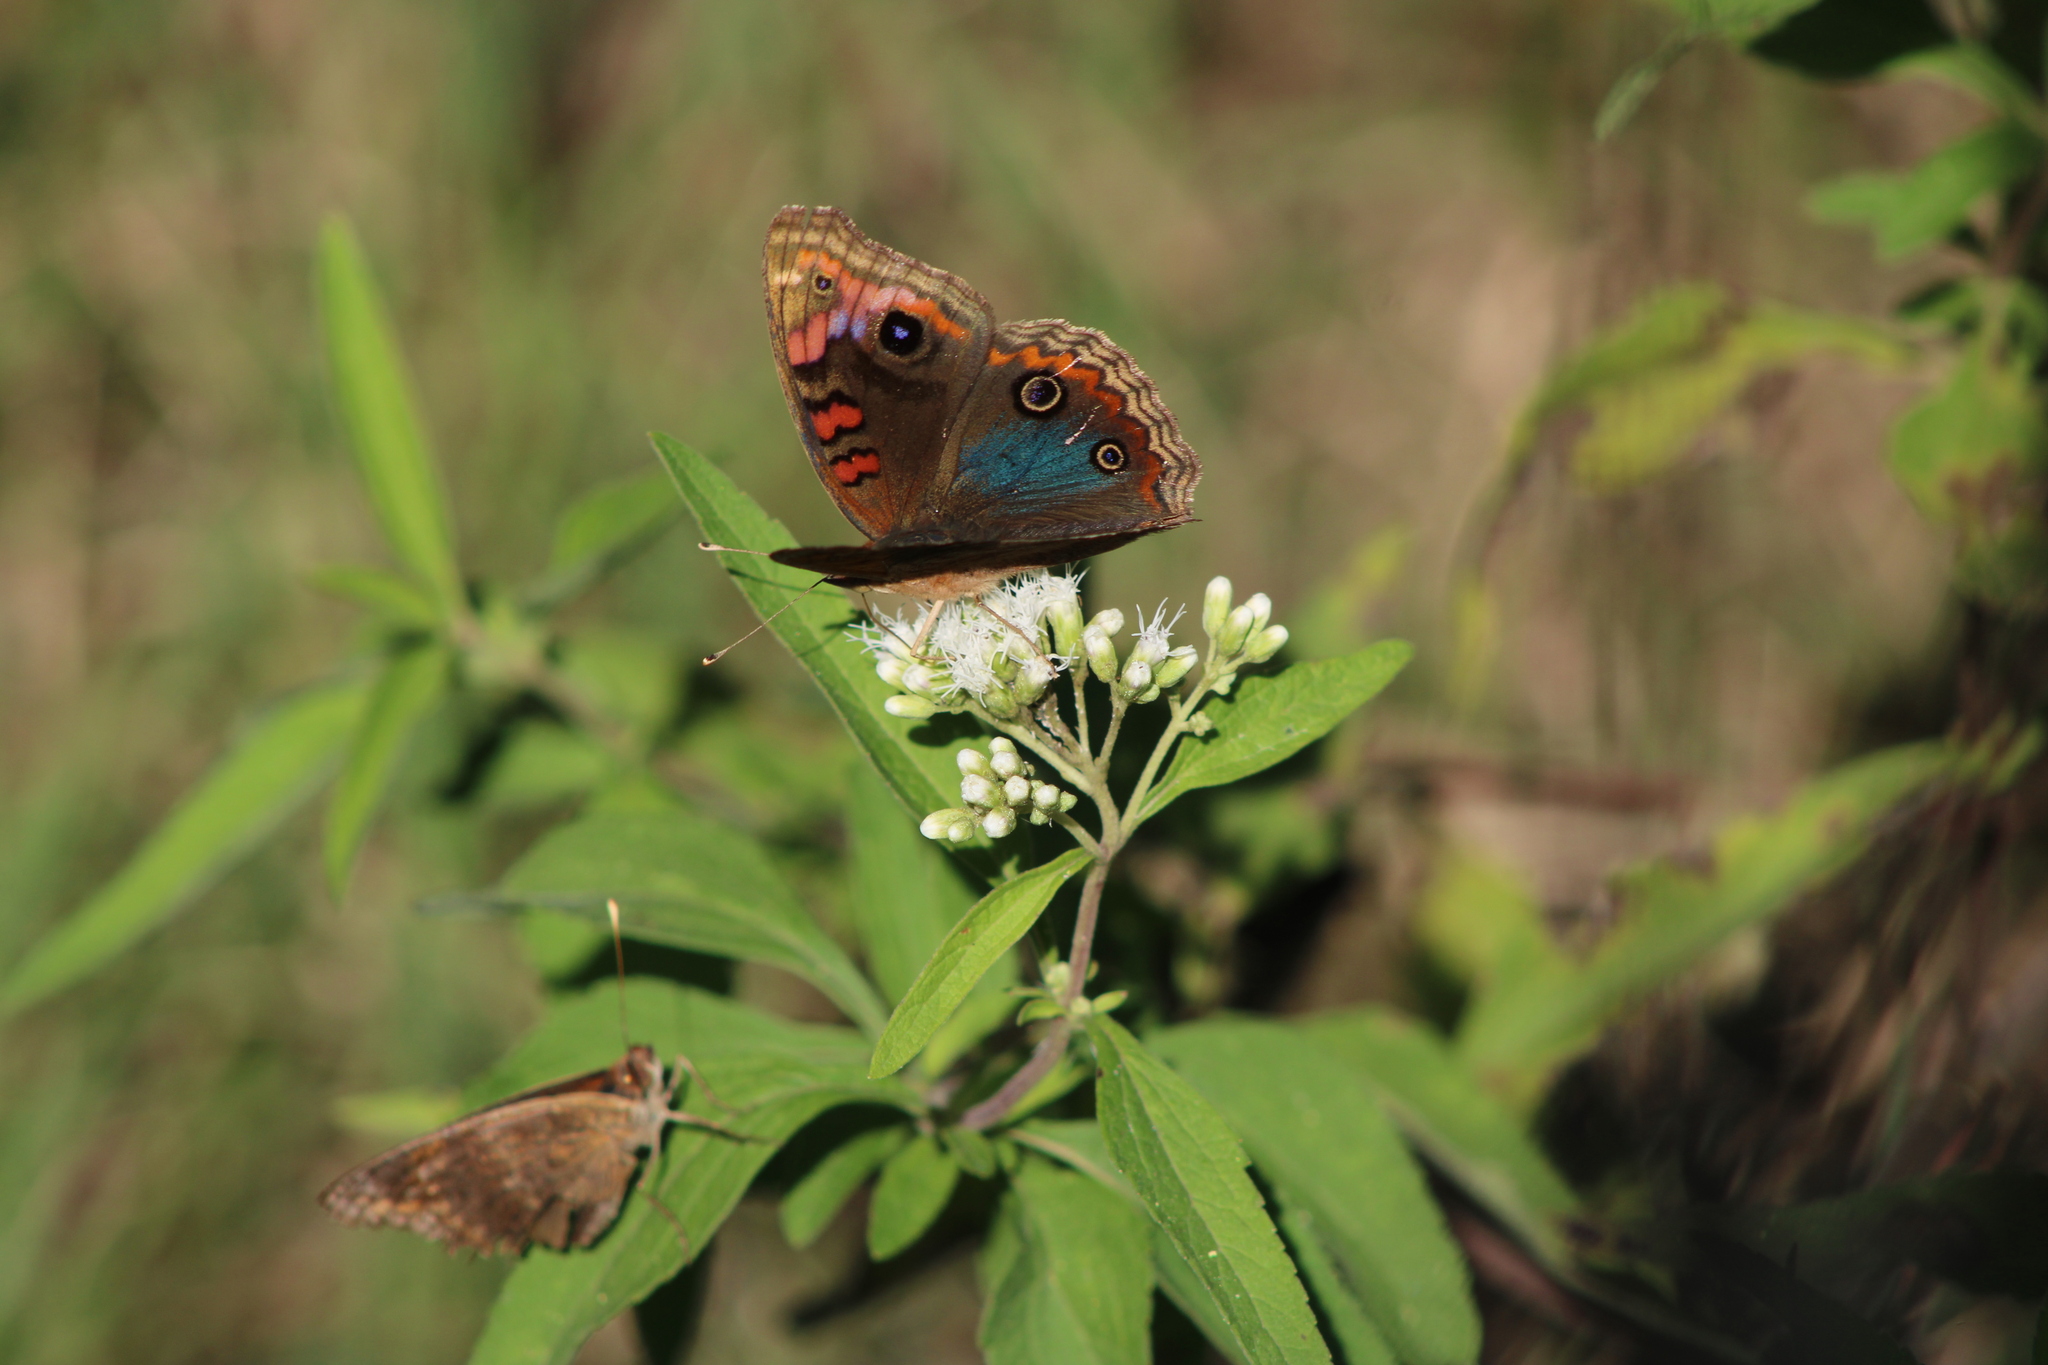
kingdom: Animalia
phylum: Arthropoda
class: Insecta
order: Lepidoptera
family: Nymphalidae
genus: Junonia
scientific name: Junonia lavinia
